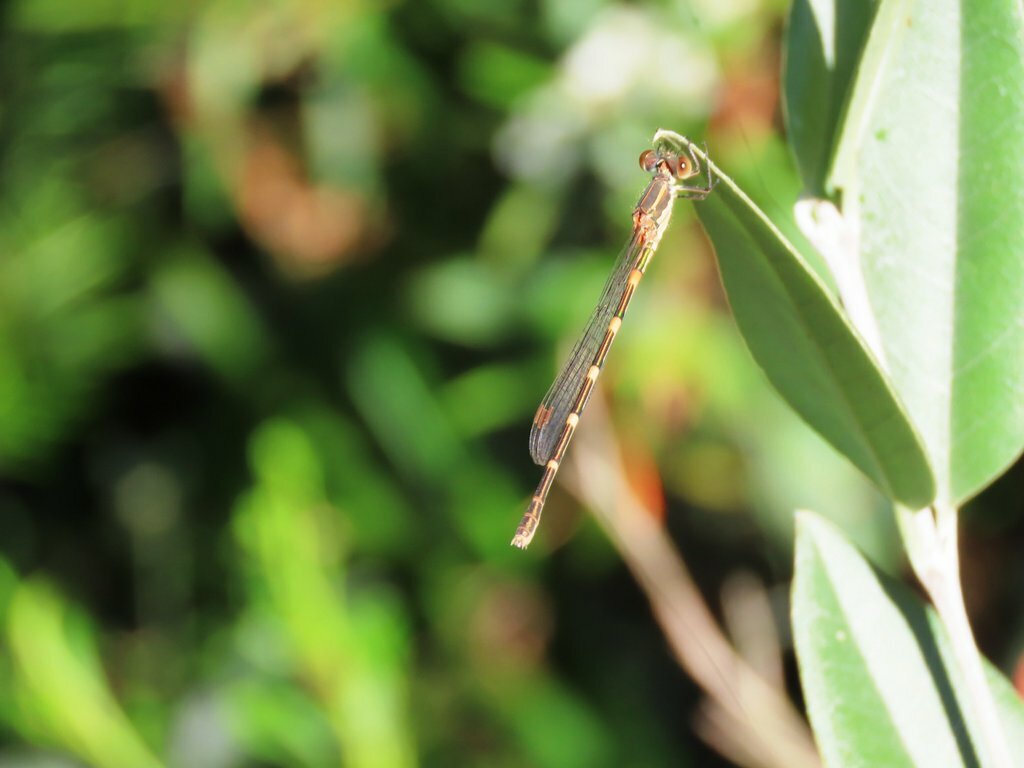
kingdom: Animalia
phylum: Arthropoda
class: Insecta
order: Odonata
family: Lestidae
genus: Austrolestes
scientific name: Austrolestes leda
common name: Wandering ringtail
